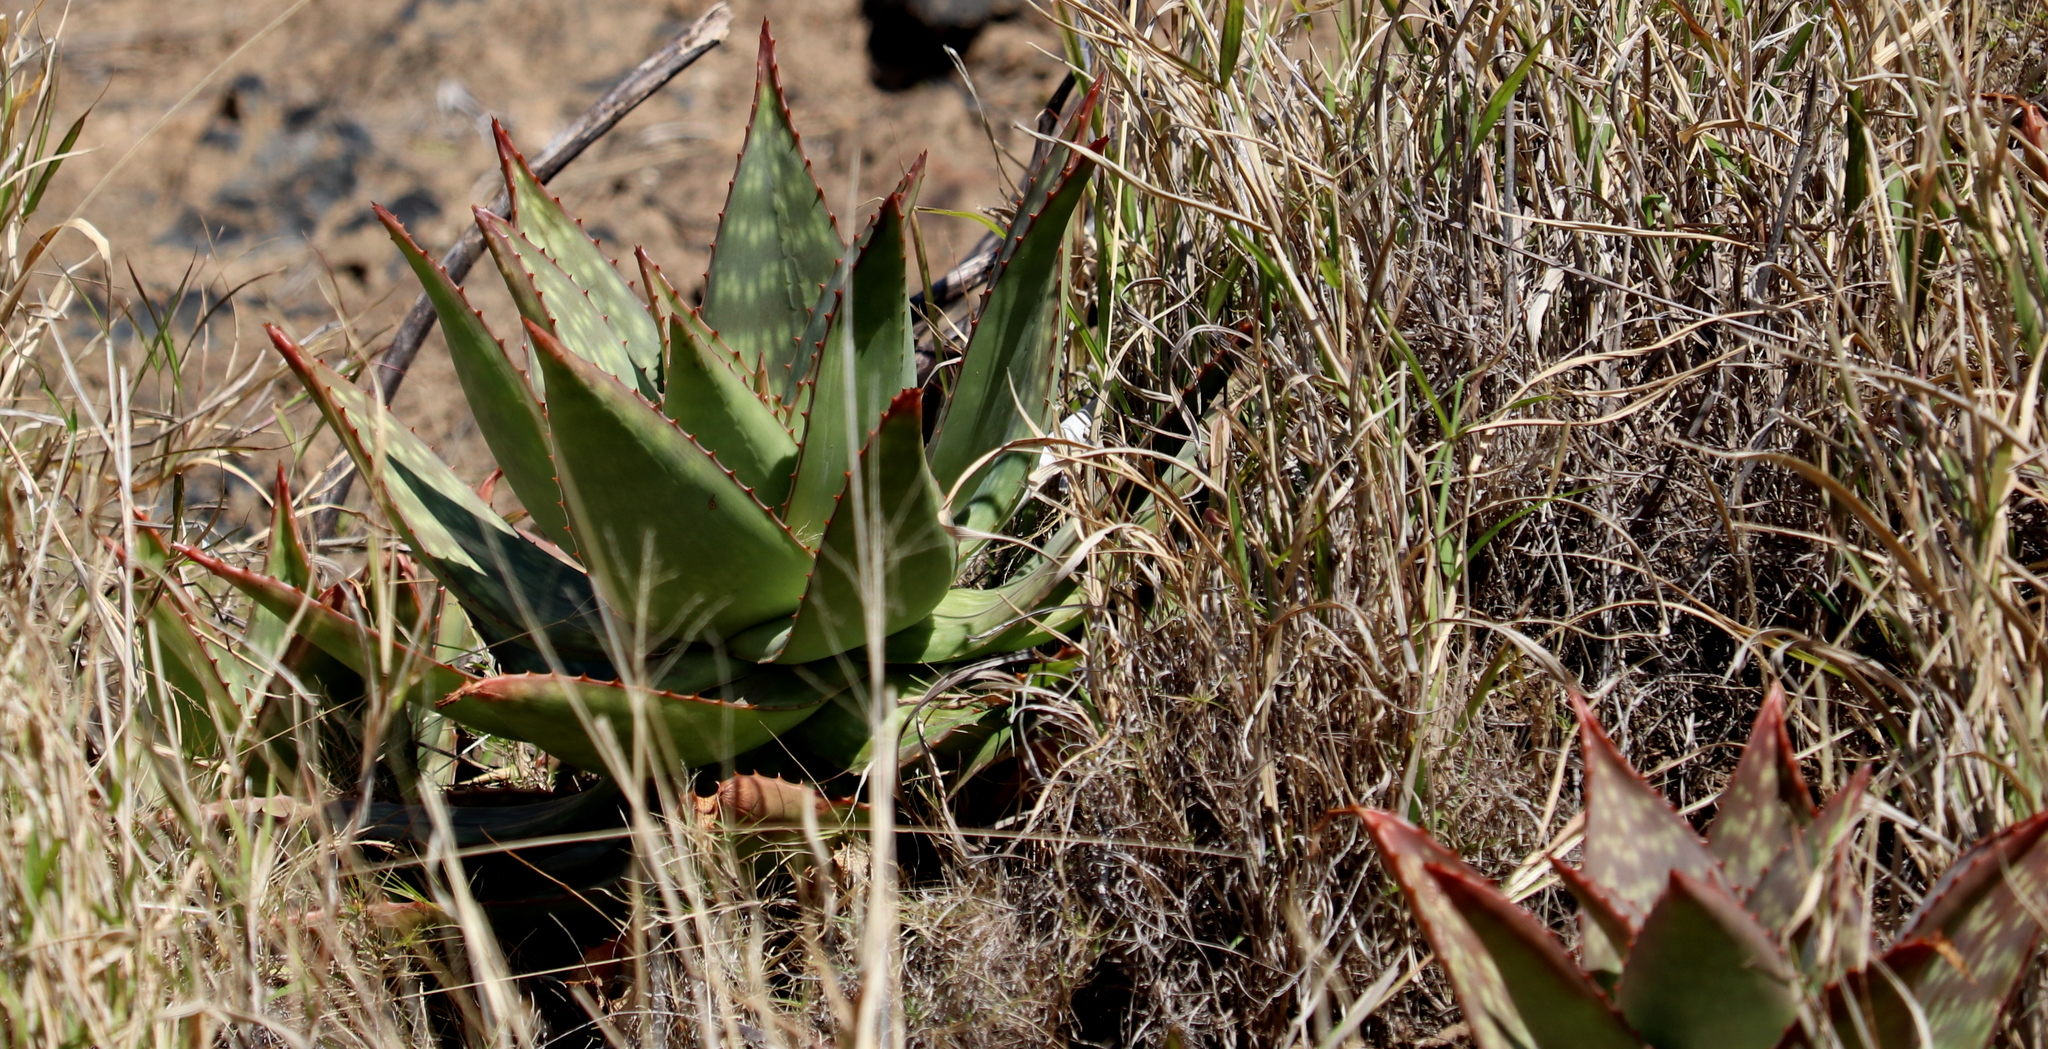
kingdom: Plantae
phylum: Tracheophyta
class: Liliopsida
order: Asparagales
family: Asphodelaceae
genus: Aloe
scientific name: Aloe maculata
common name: Broadleaf aloe
